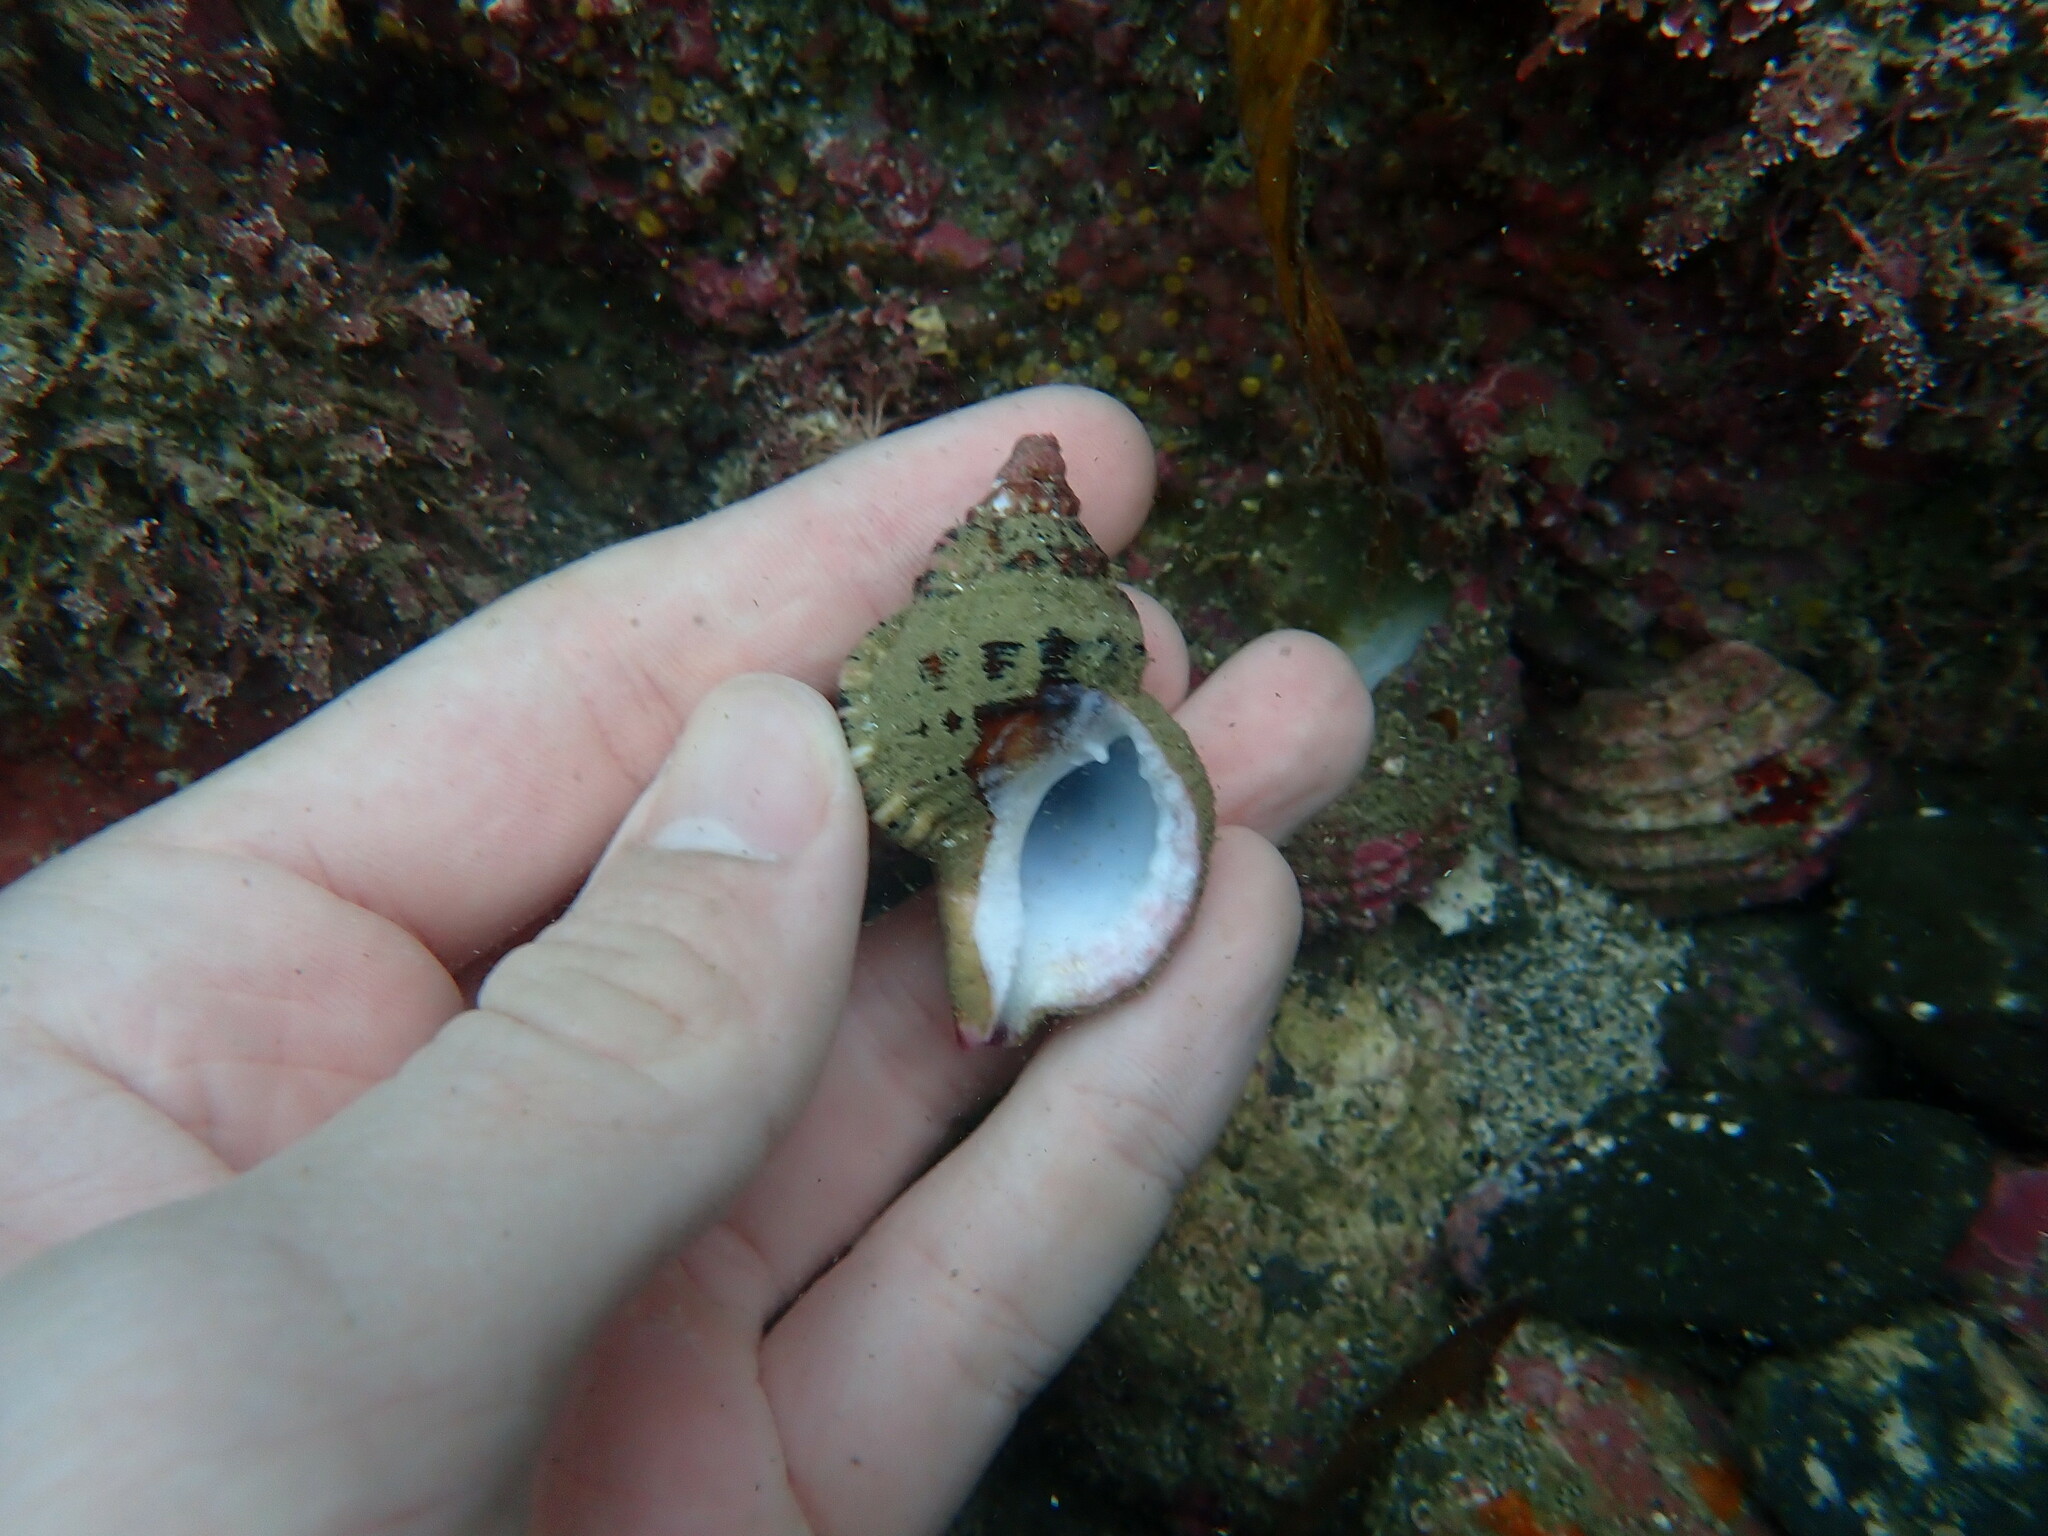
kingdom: Animalia
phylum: Mollusca
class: Gastropoda
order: Littorinimorpha
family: Ranellidae
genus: Ranella
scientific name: Ranella australasia
